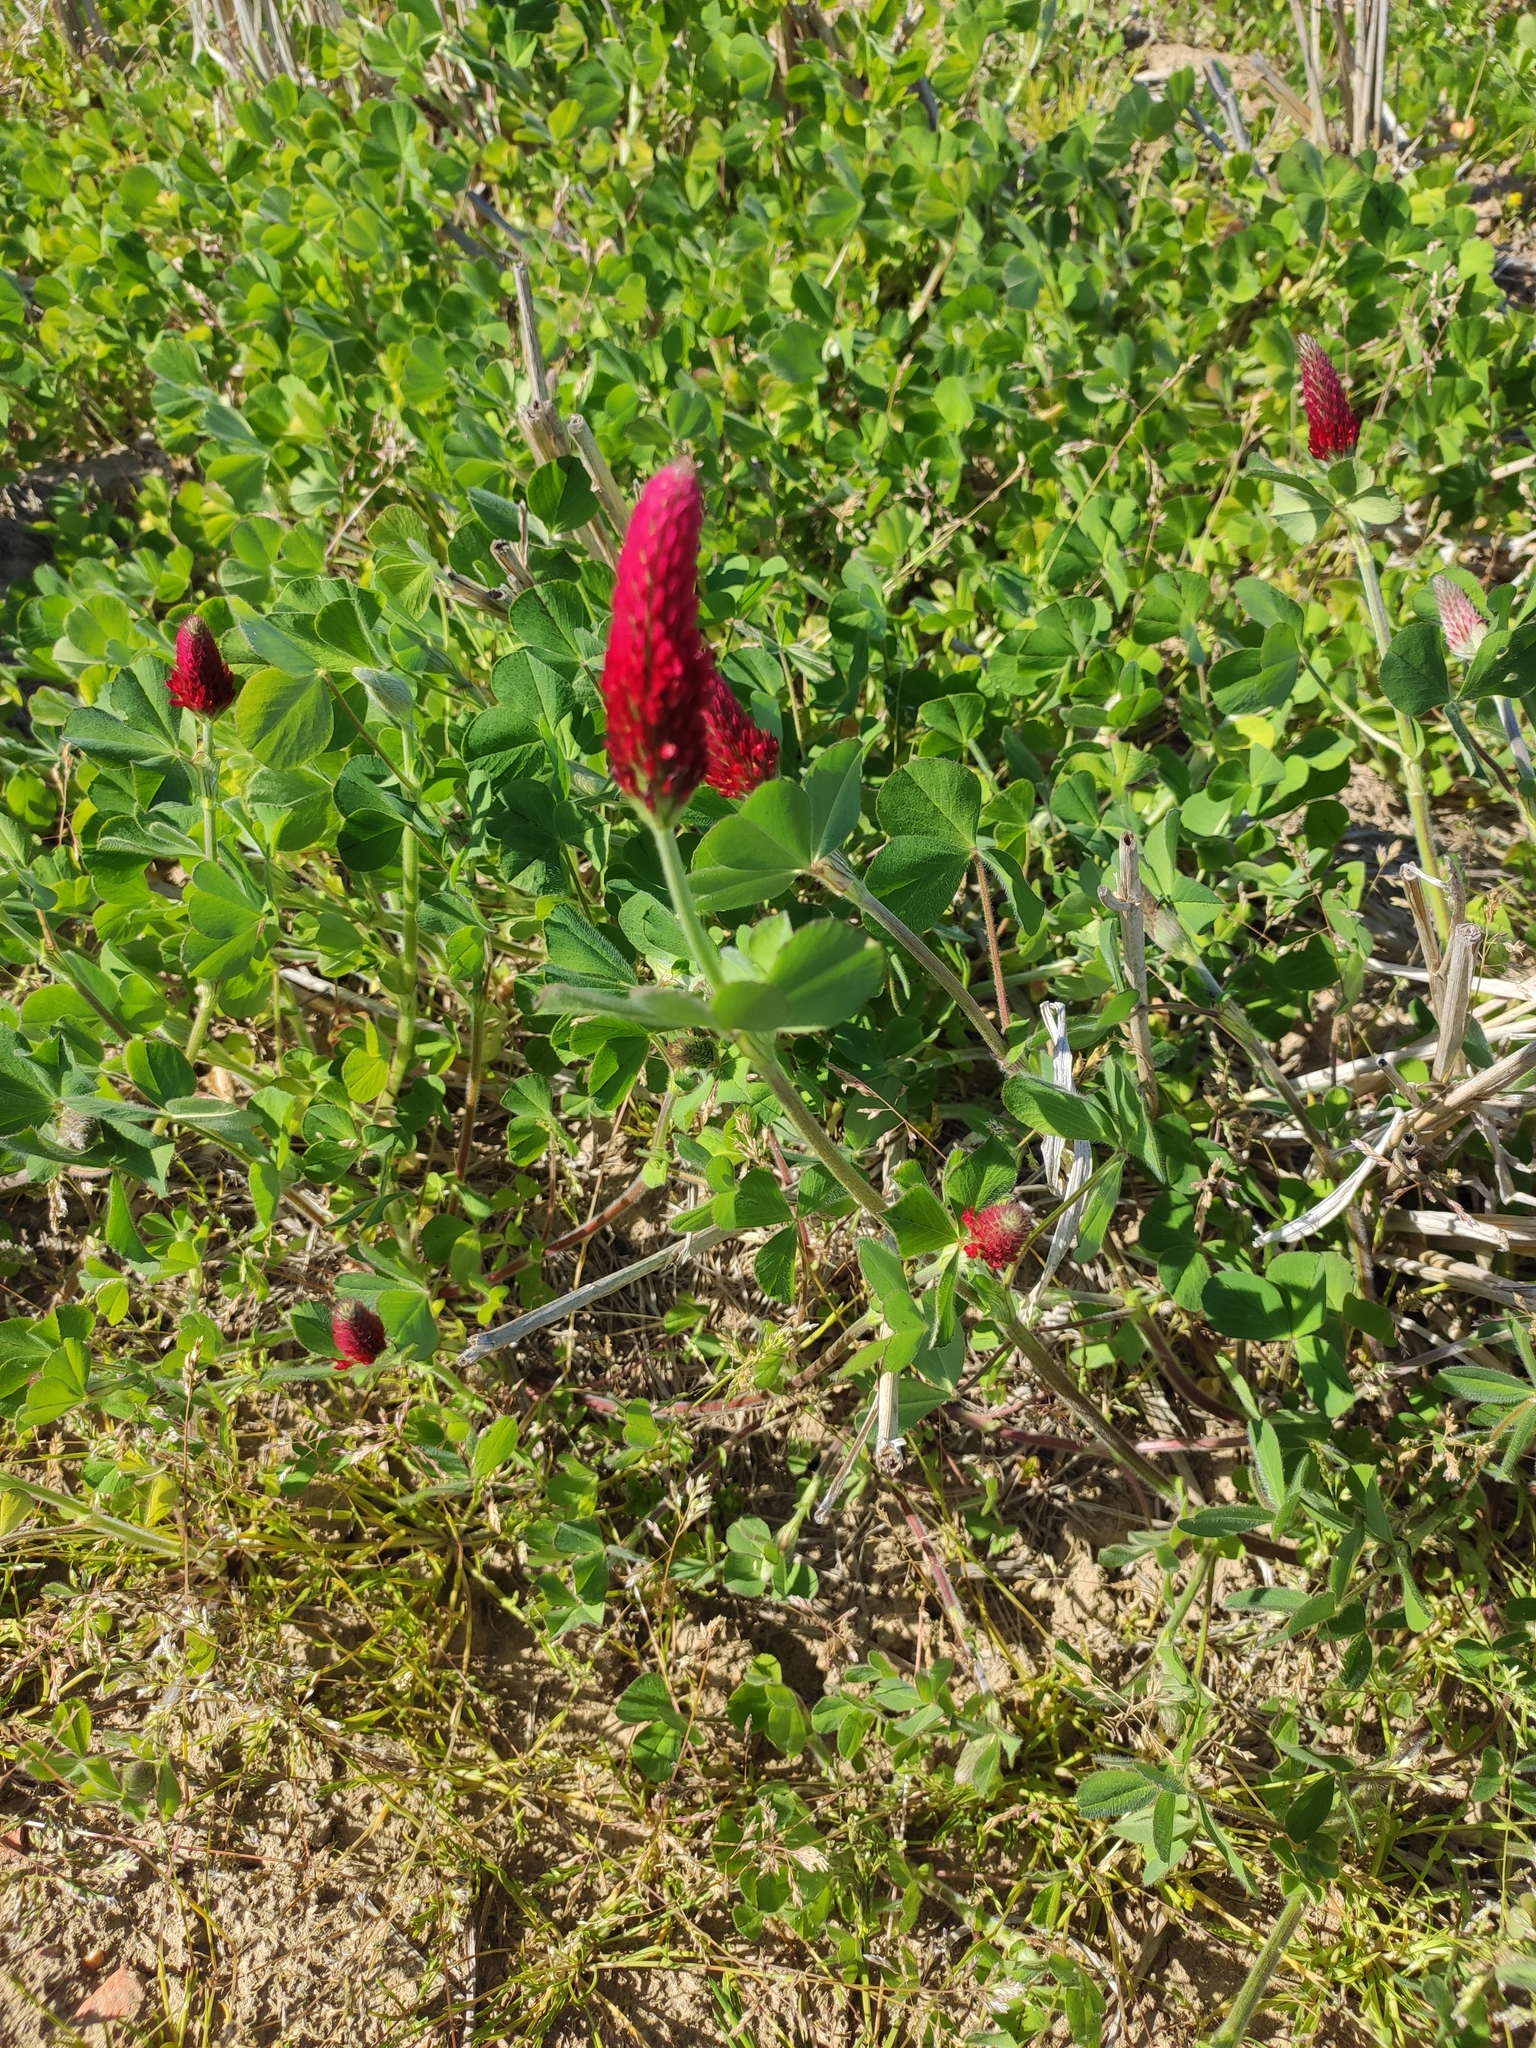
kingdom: Plantae
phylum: Tracheophyta
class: Magnoliopsida
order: Fabales
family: Fabaceae
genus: Trifolium
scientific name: Trifolium incarnatum
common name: Crimson clover
